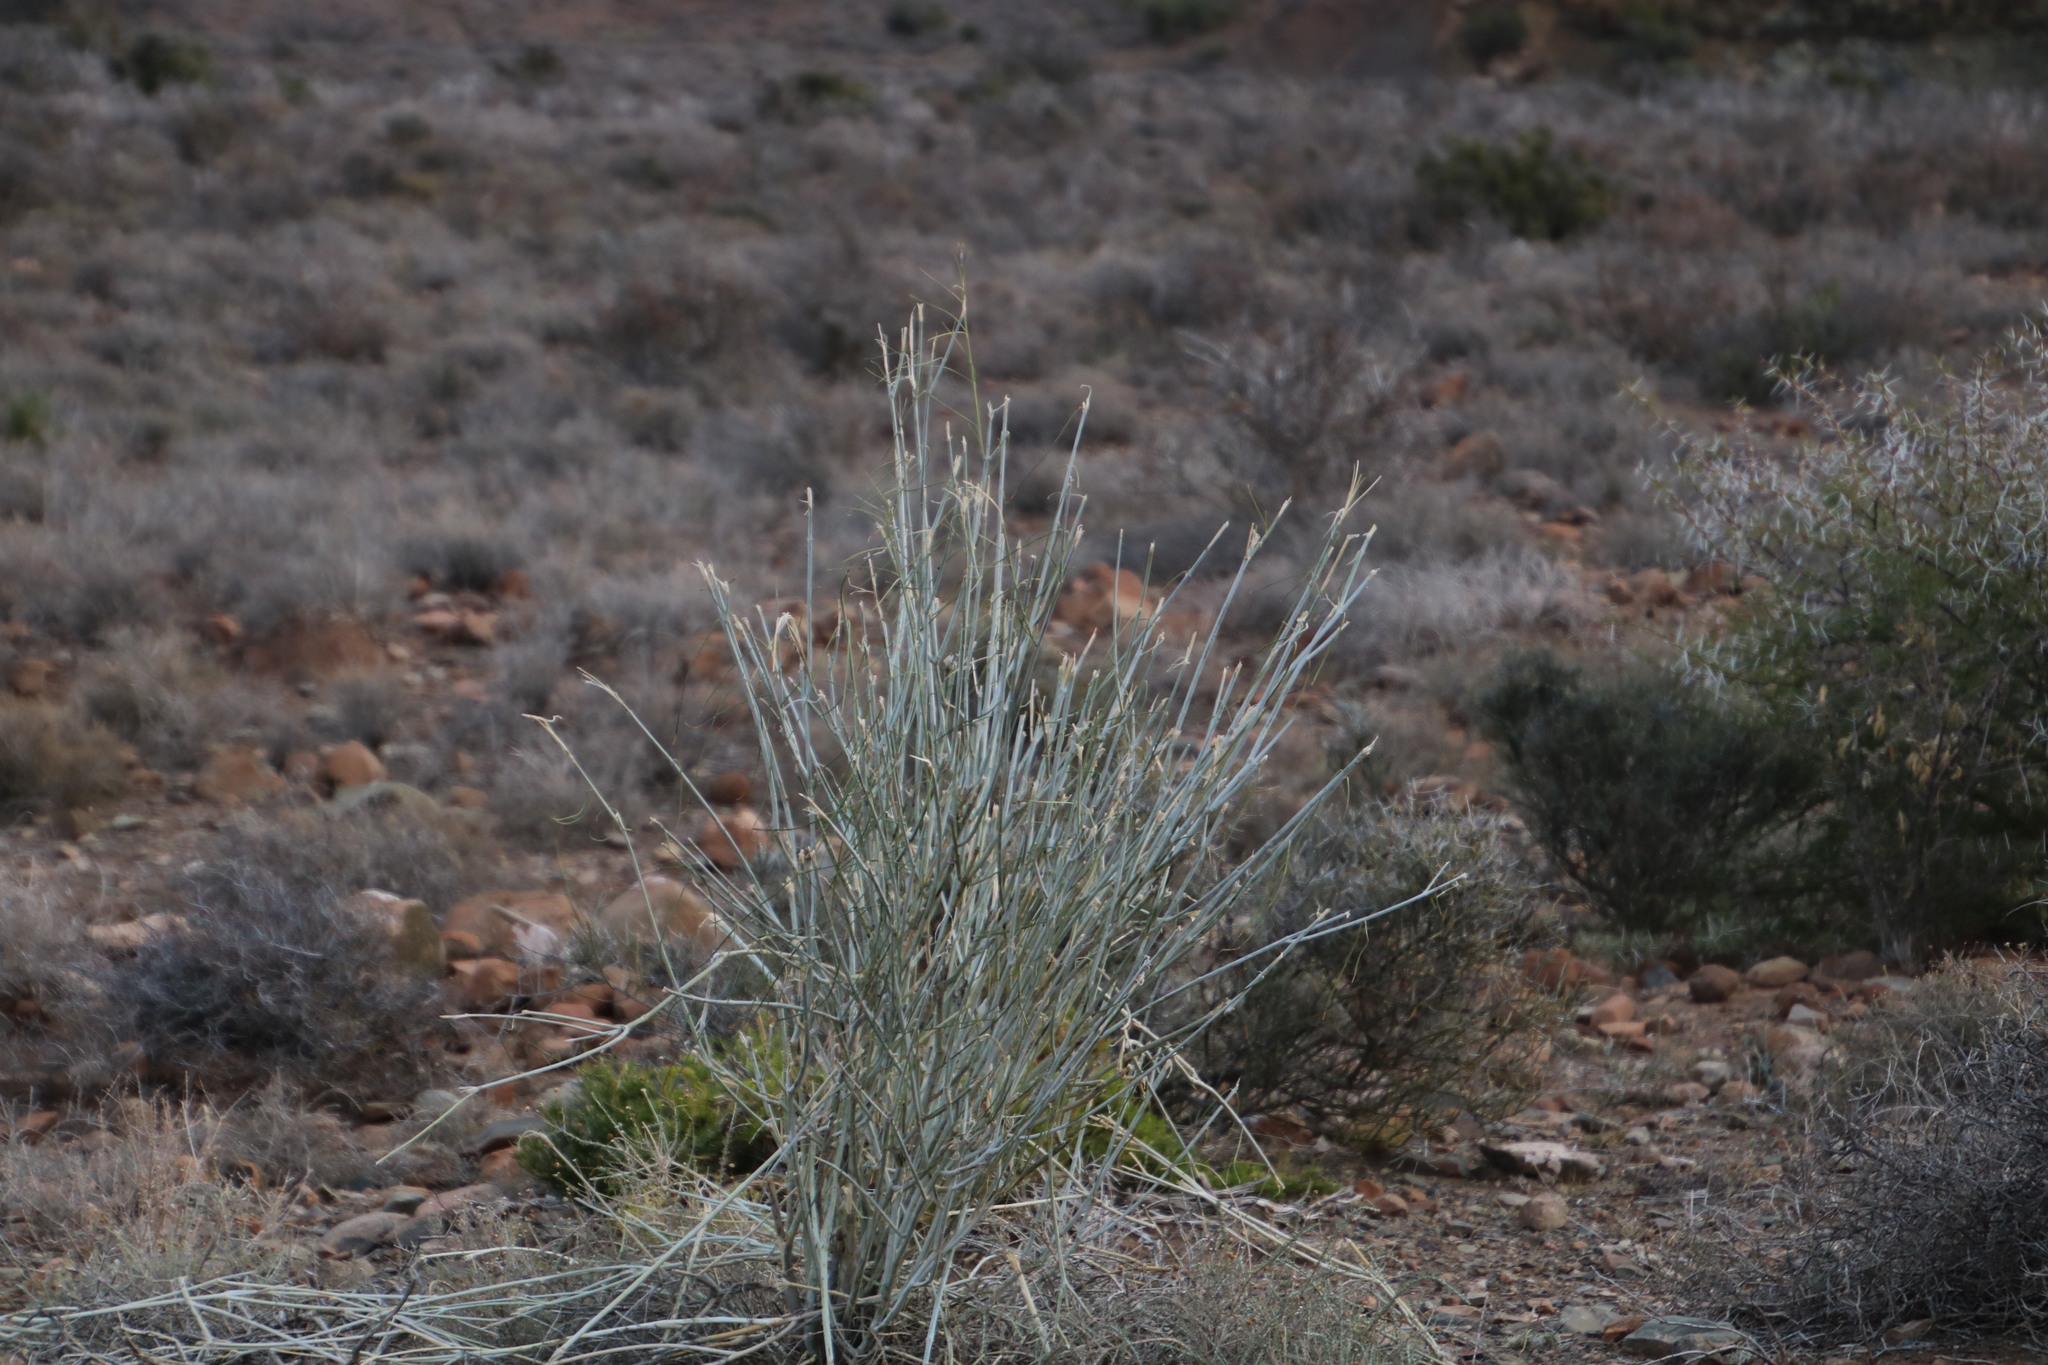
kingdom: Plantae
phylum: Tracheophyta
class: Magnoliopsida
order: Gentianales
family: Apocynaceae
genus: Gomphocarpus
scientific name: Gomphocarpus filiformis
